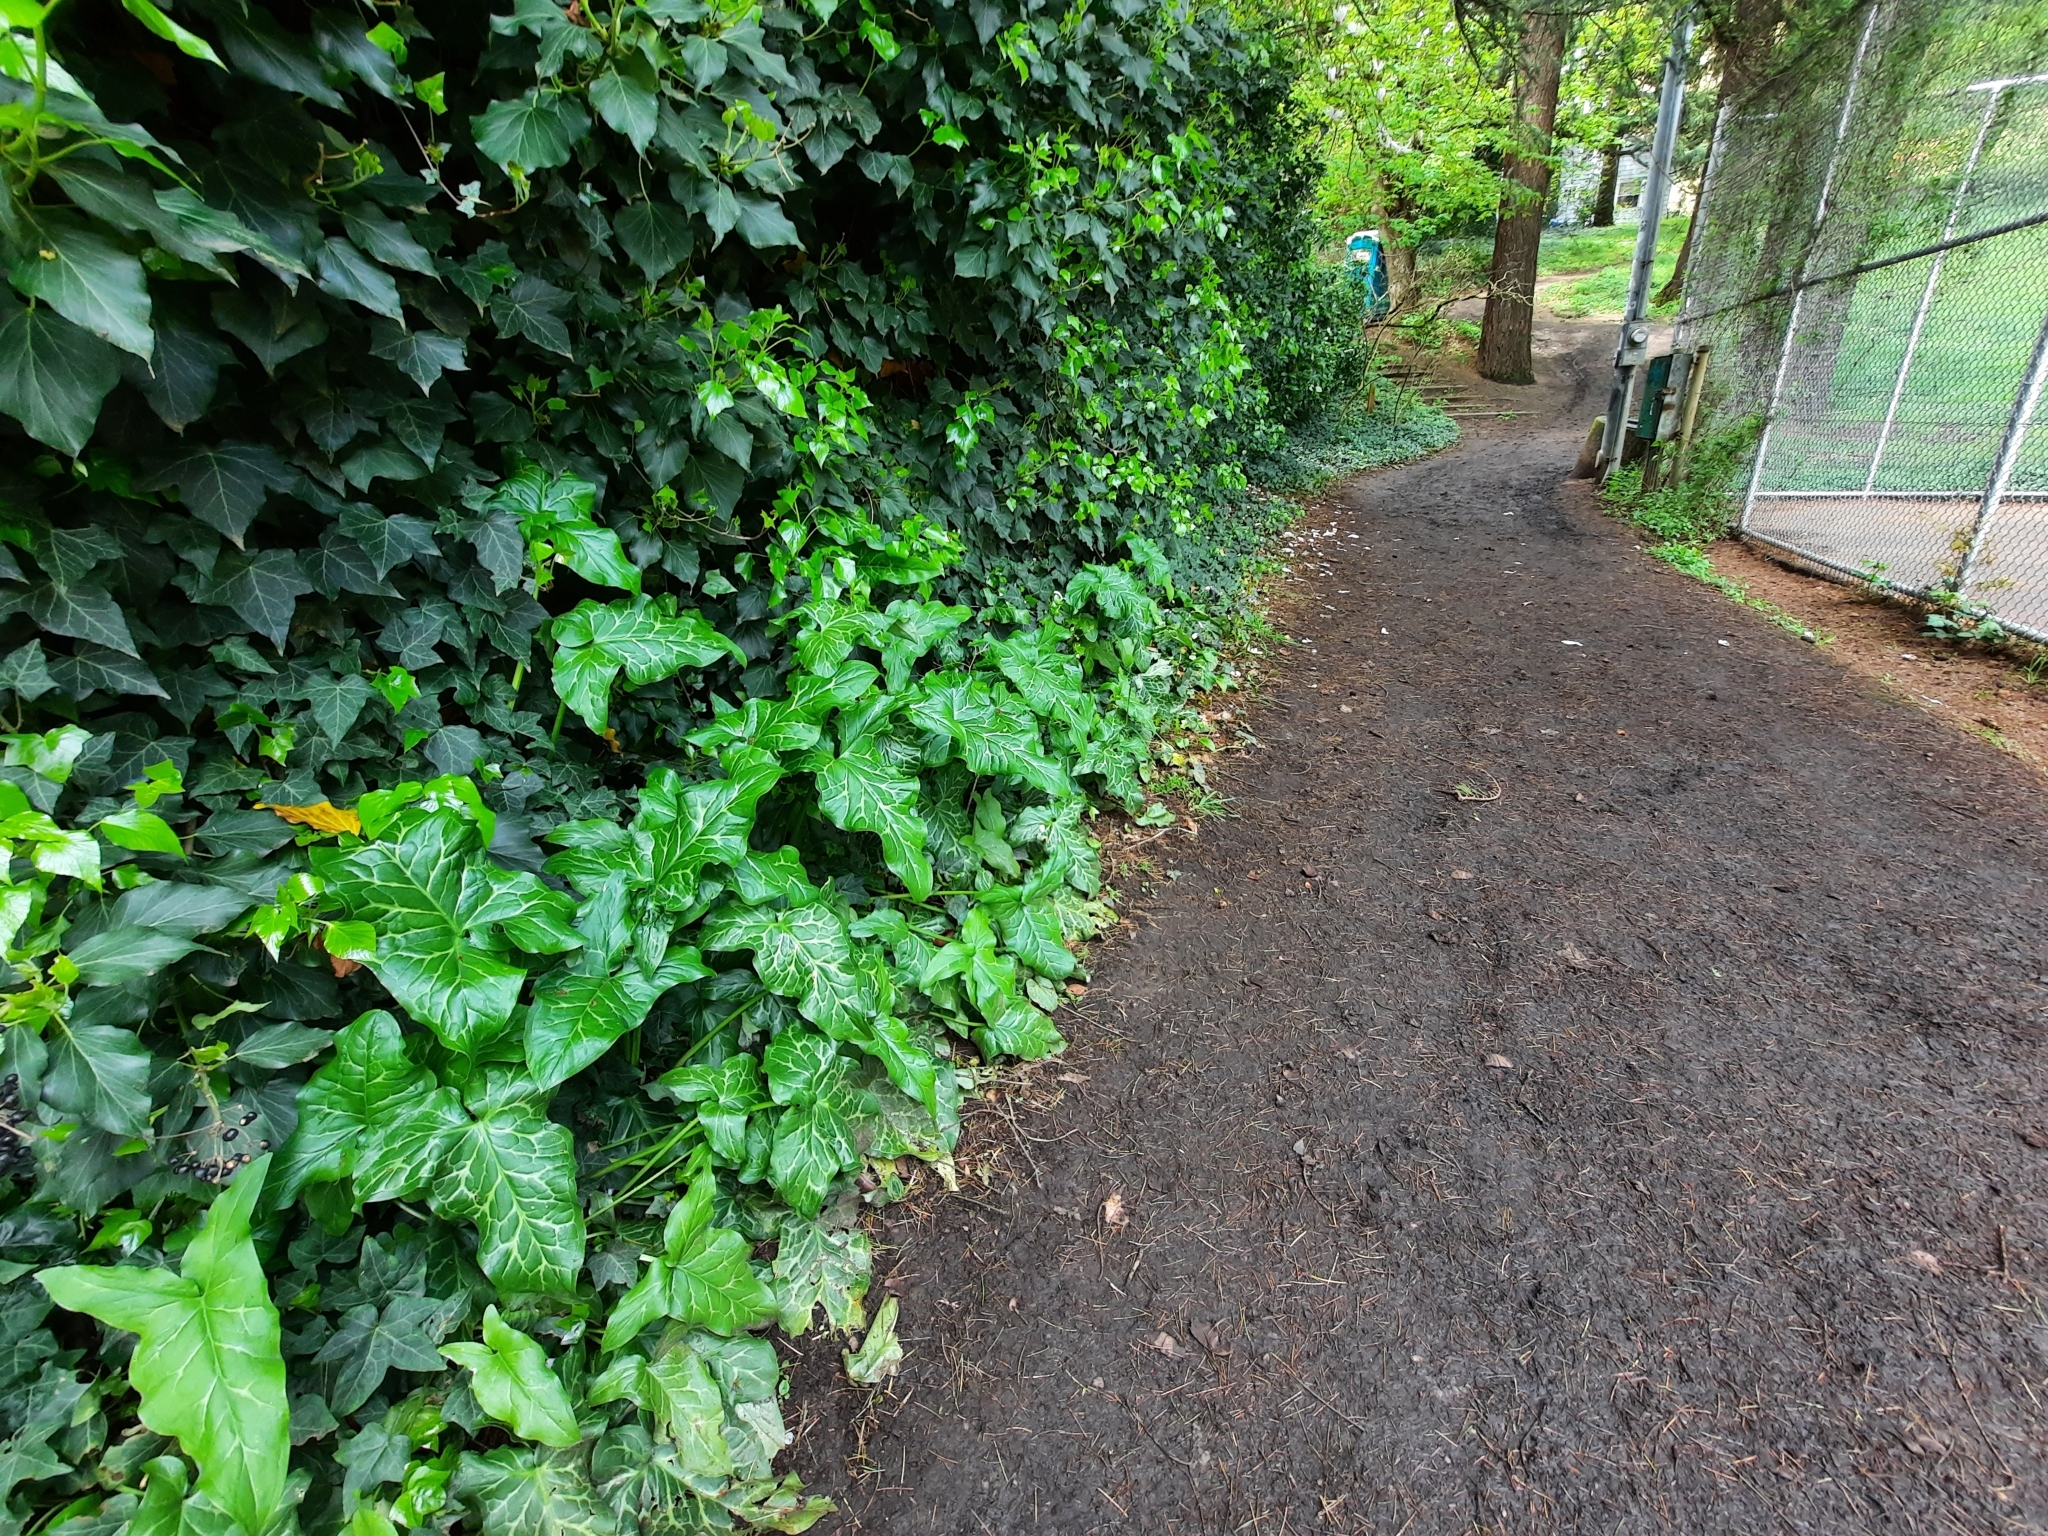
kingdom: Plantae
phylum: Tracheophyta
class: Liliopsida
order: Alismatales
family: Araceae
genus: Arum
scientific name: Arum italicum
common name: Italian lords-and-ladies
